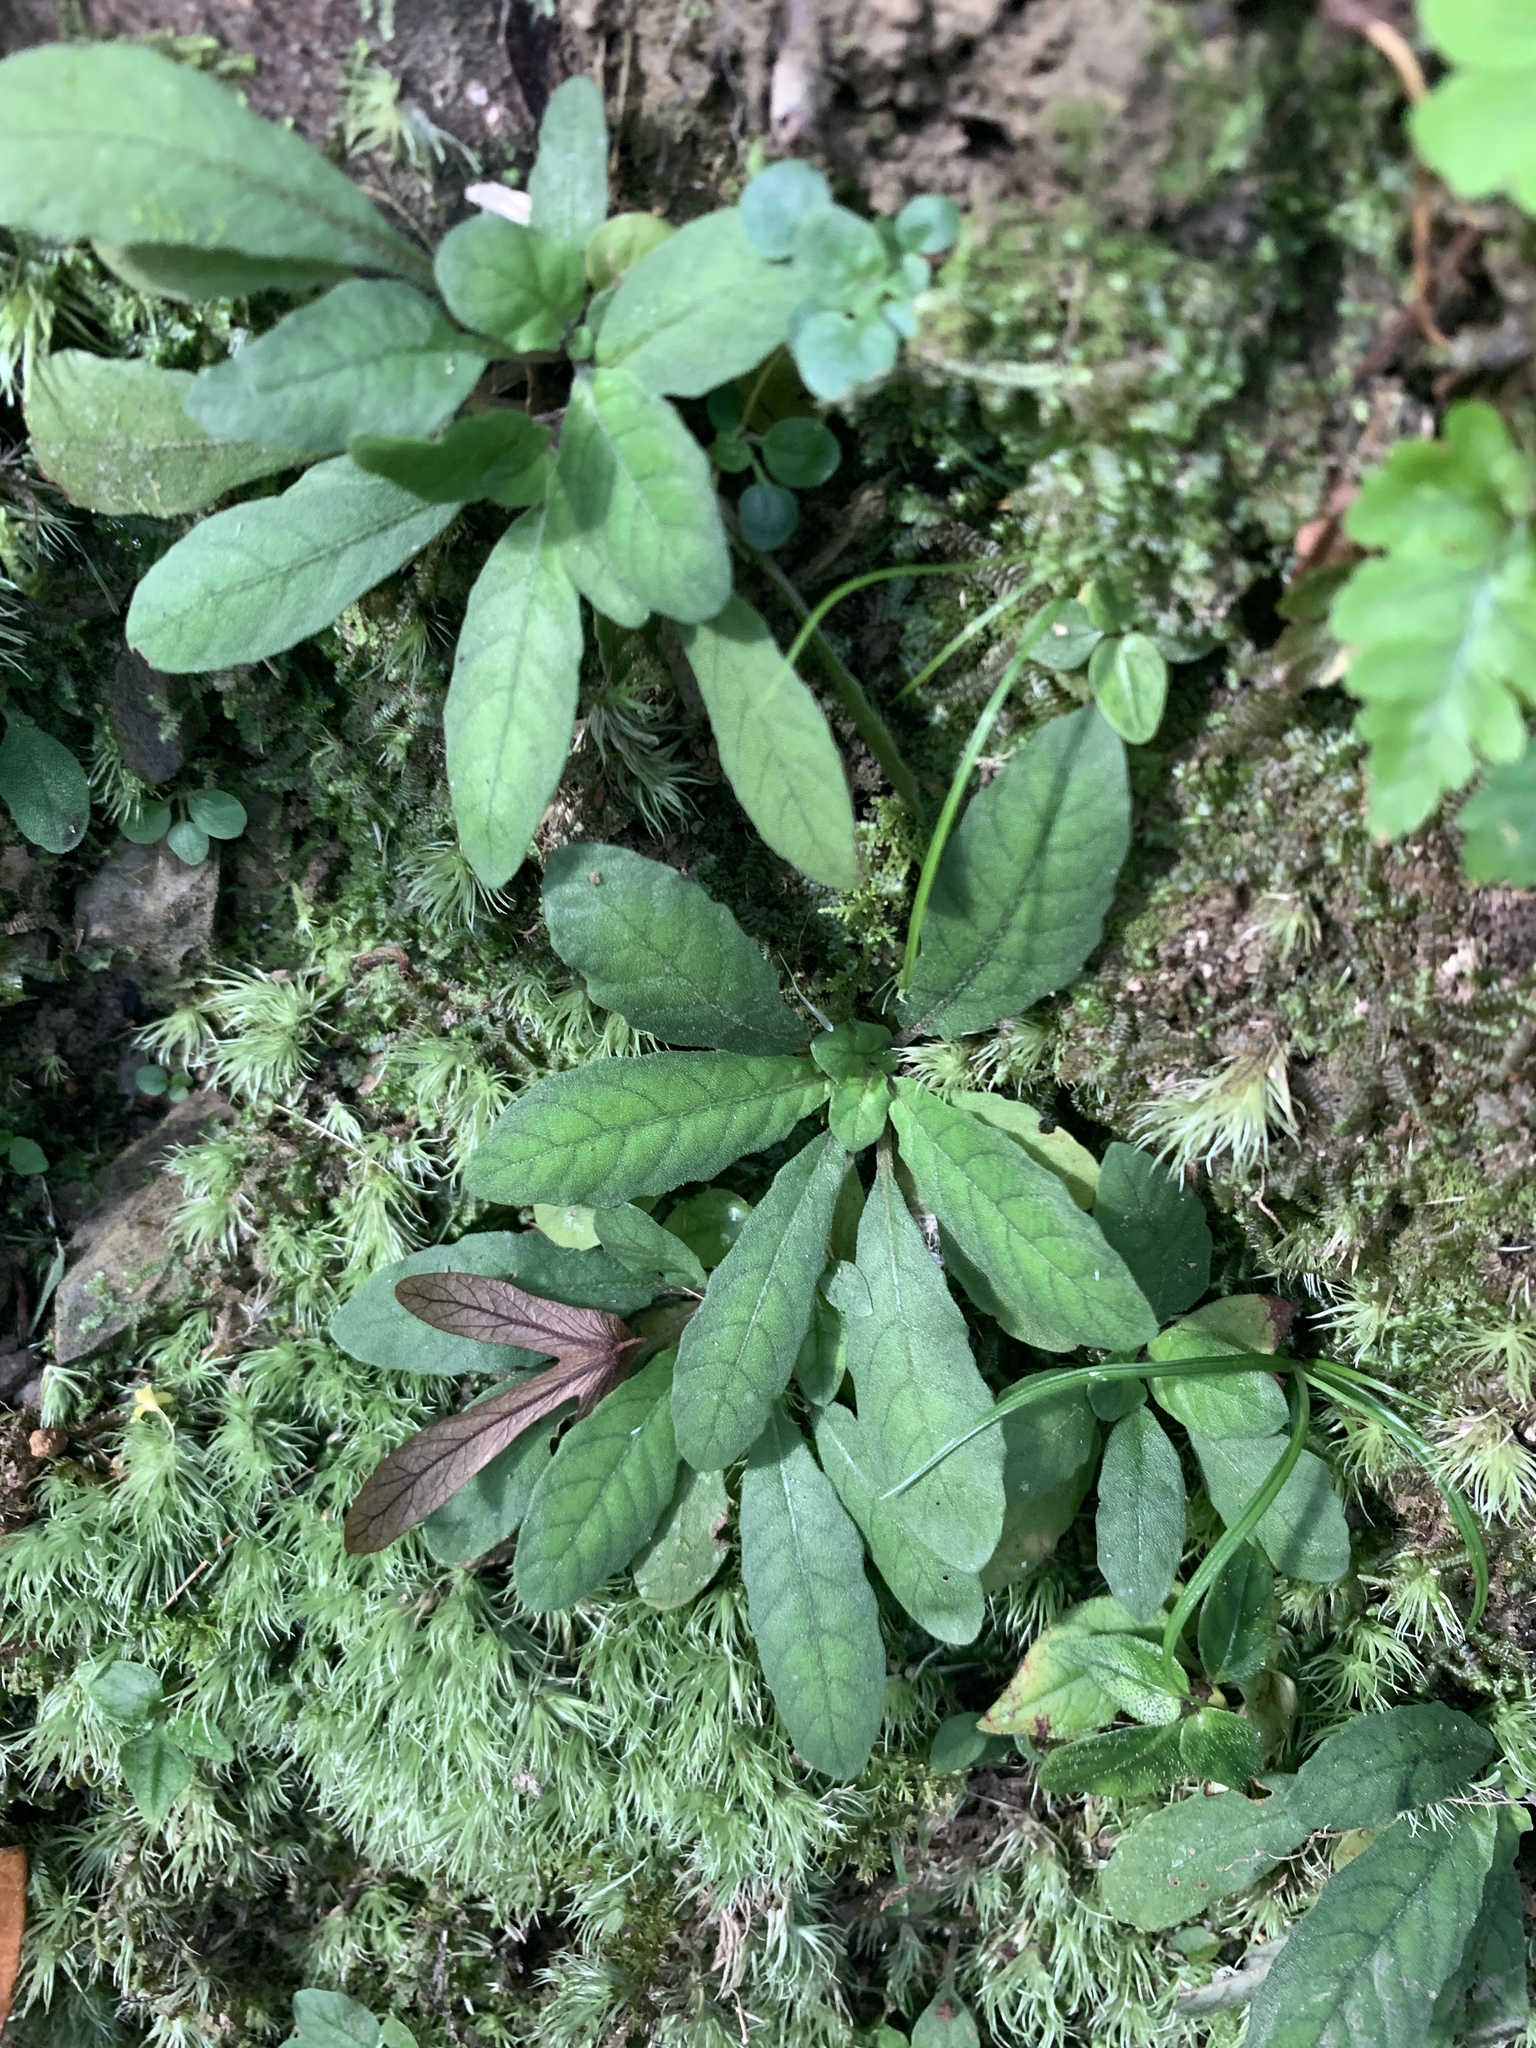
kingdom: Plantae
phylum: Tracheophyta
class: Magnoliopsida
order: Lamiales
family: Acanthaceae
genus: Staurogyne
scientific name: Staurogyne concinnula
